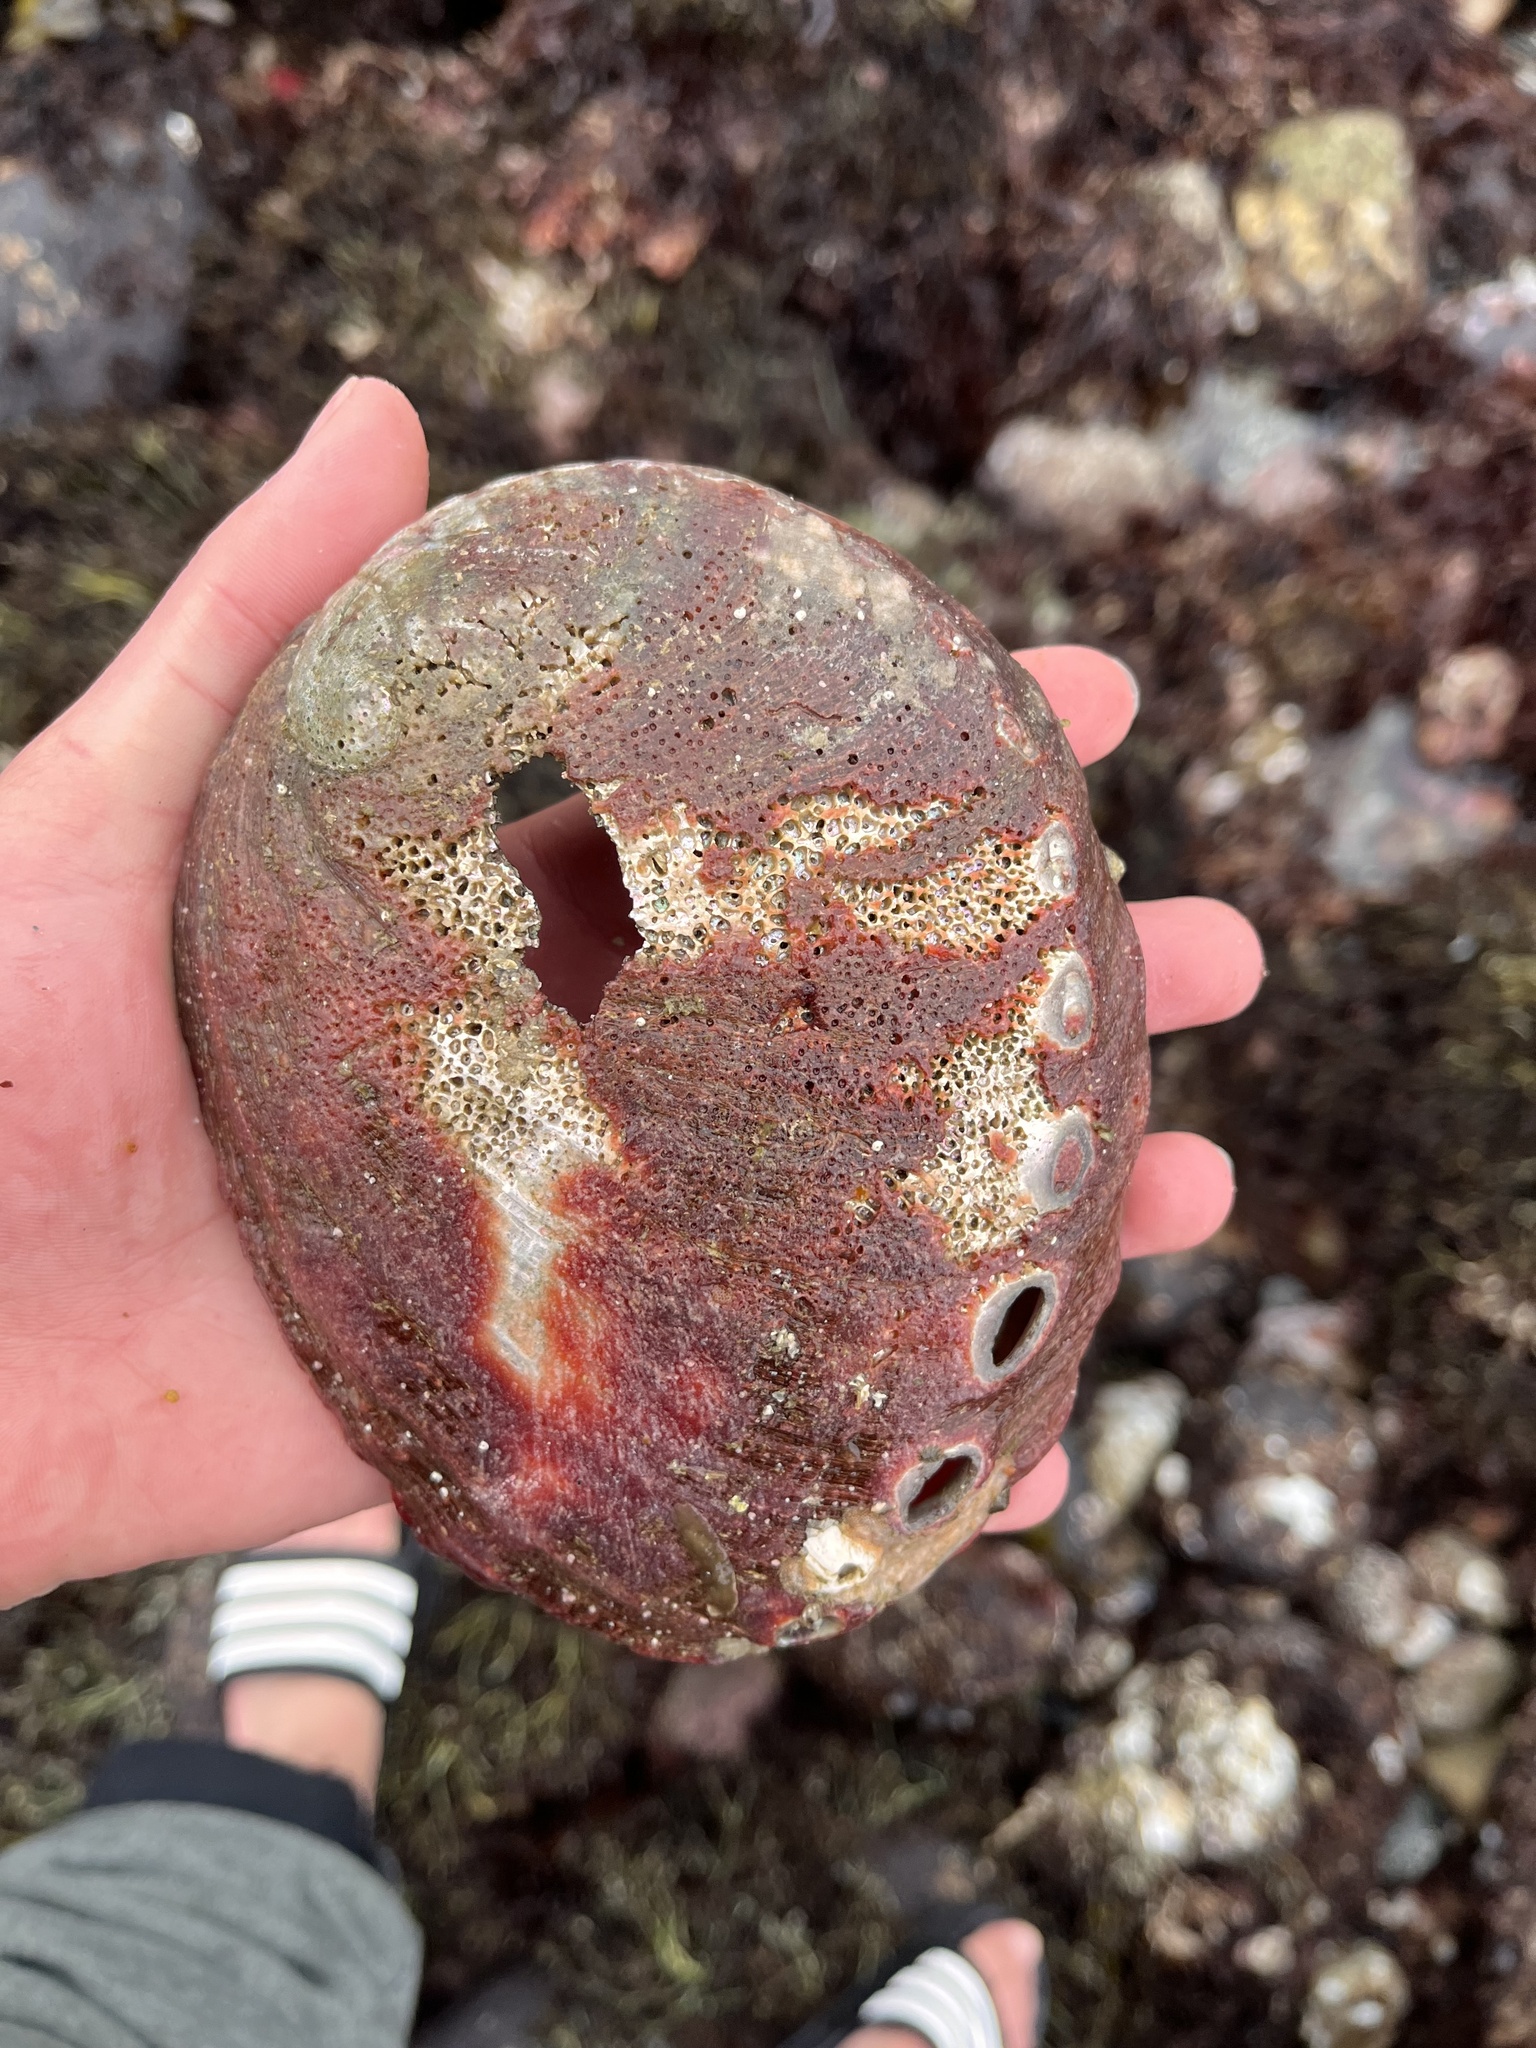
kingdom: Animalia
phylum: Mollusca
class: Gastropoda
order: Lepetellida
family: Haliotidae
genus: Haliotis
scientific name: Haliotis rufescens
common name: Red abalone
